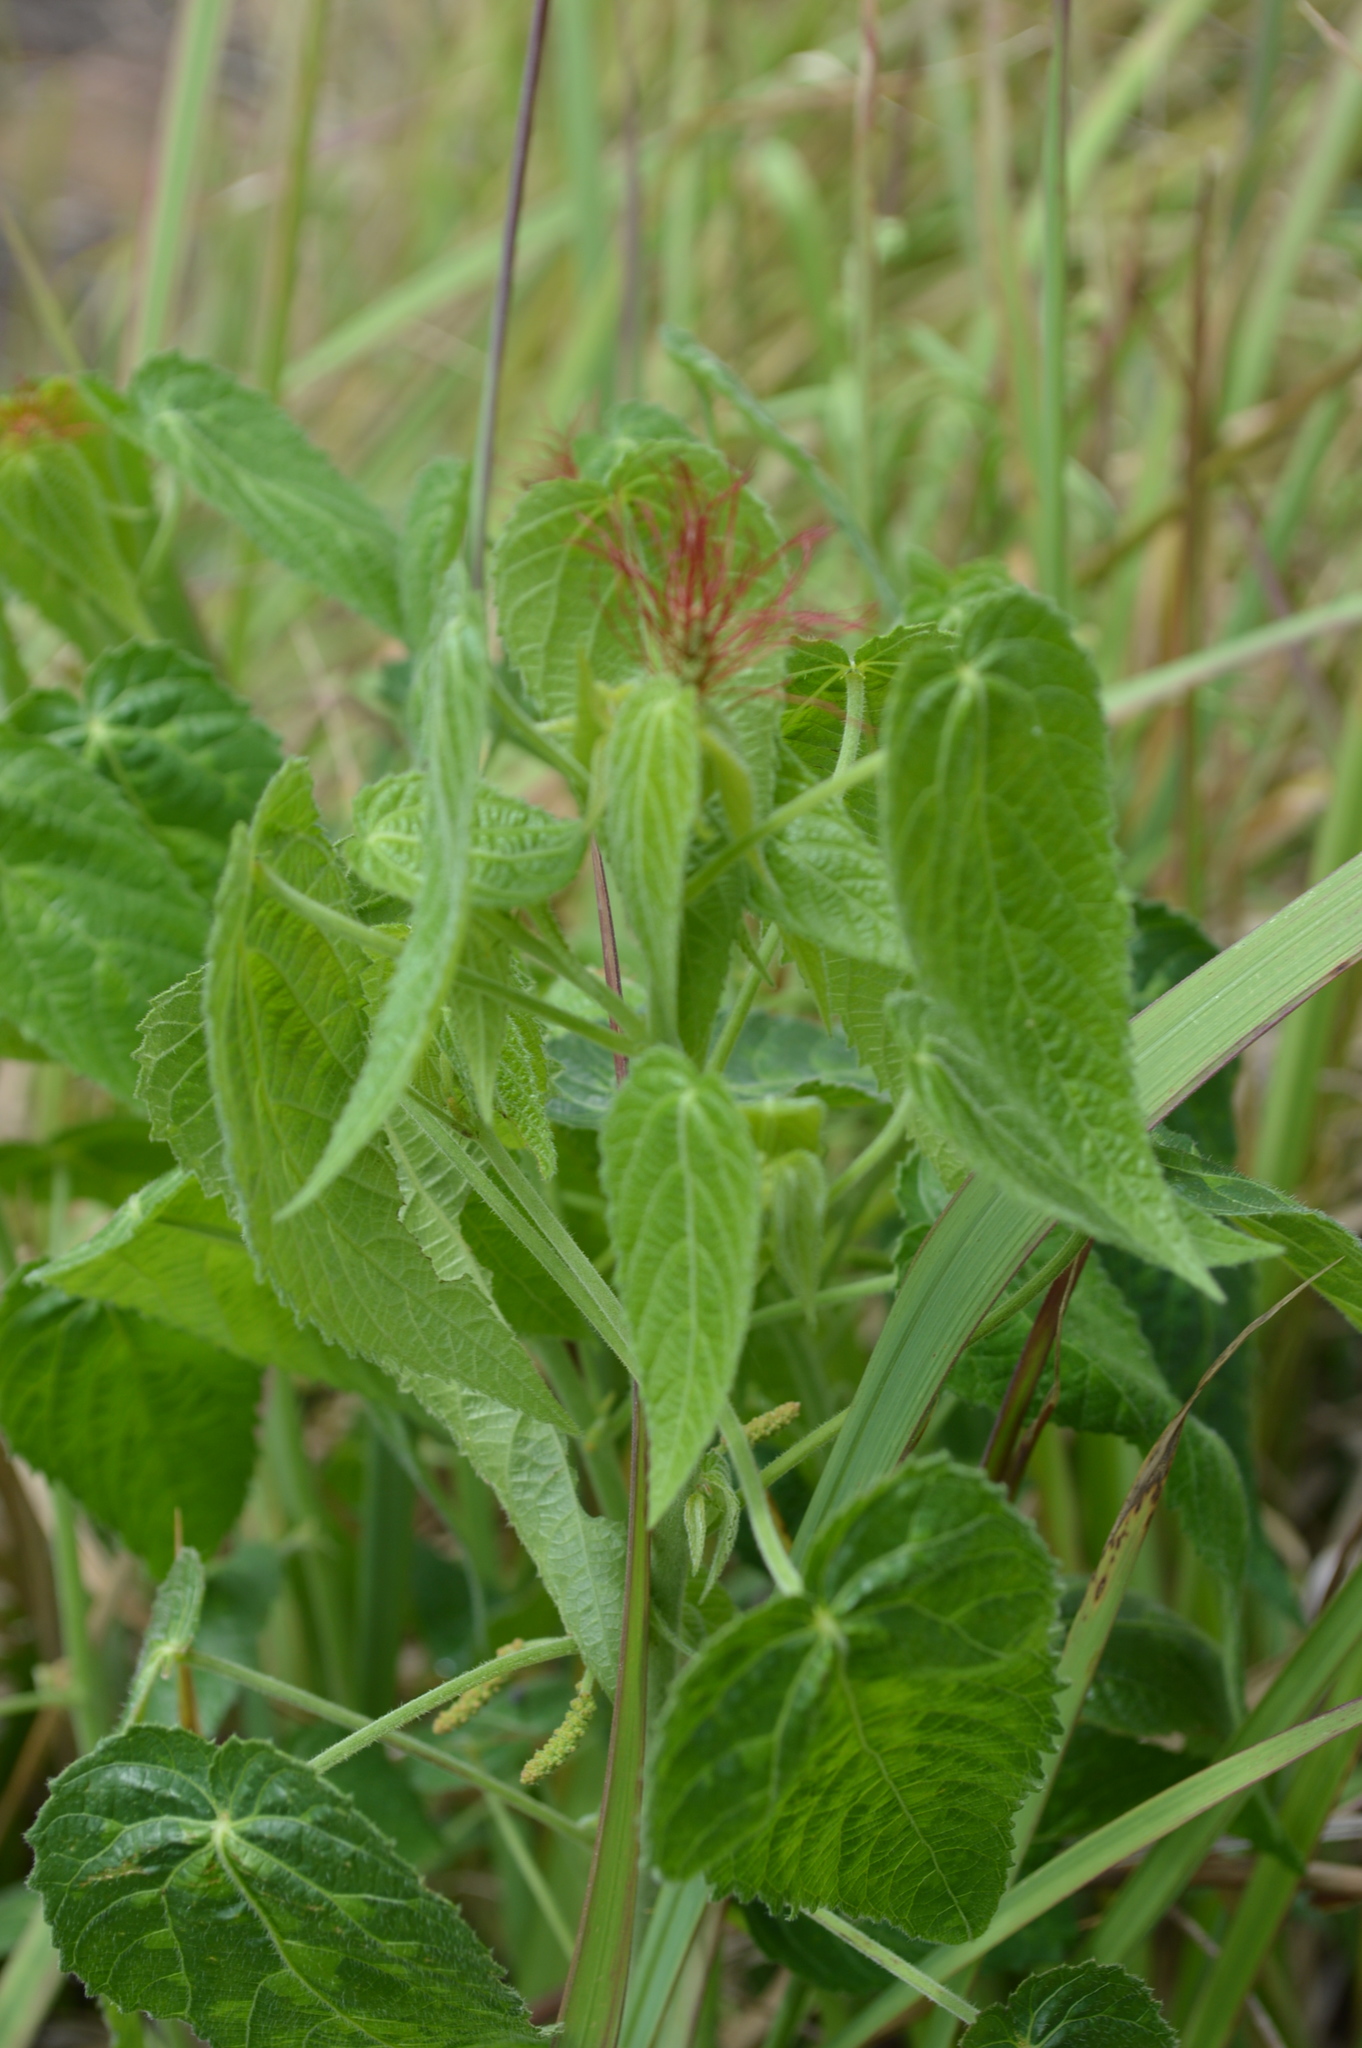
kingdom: Plantae
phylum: Tracheophyta
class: Magnoliopsida
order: Malpighiales
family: Euphorbiaceae
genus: Acalypha
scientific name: Acalypha petiolaris
